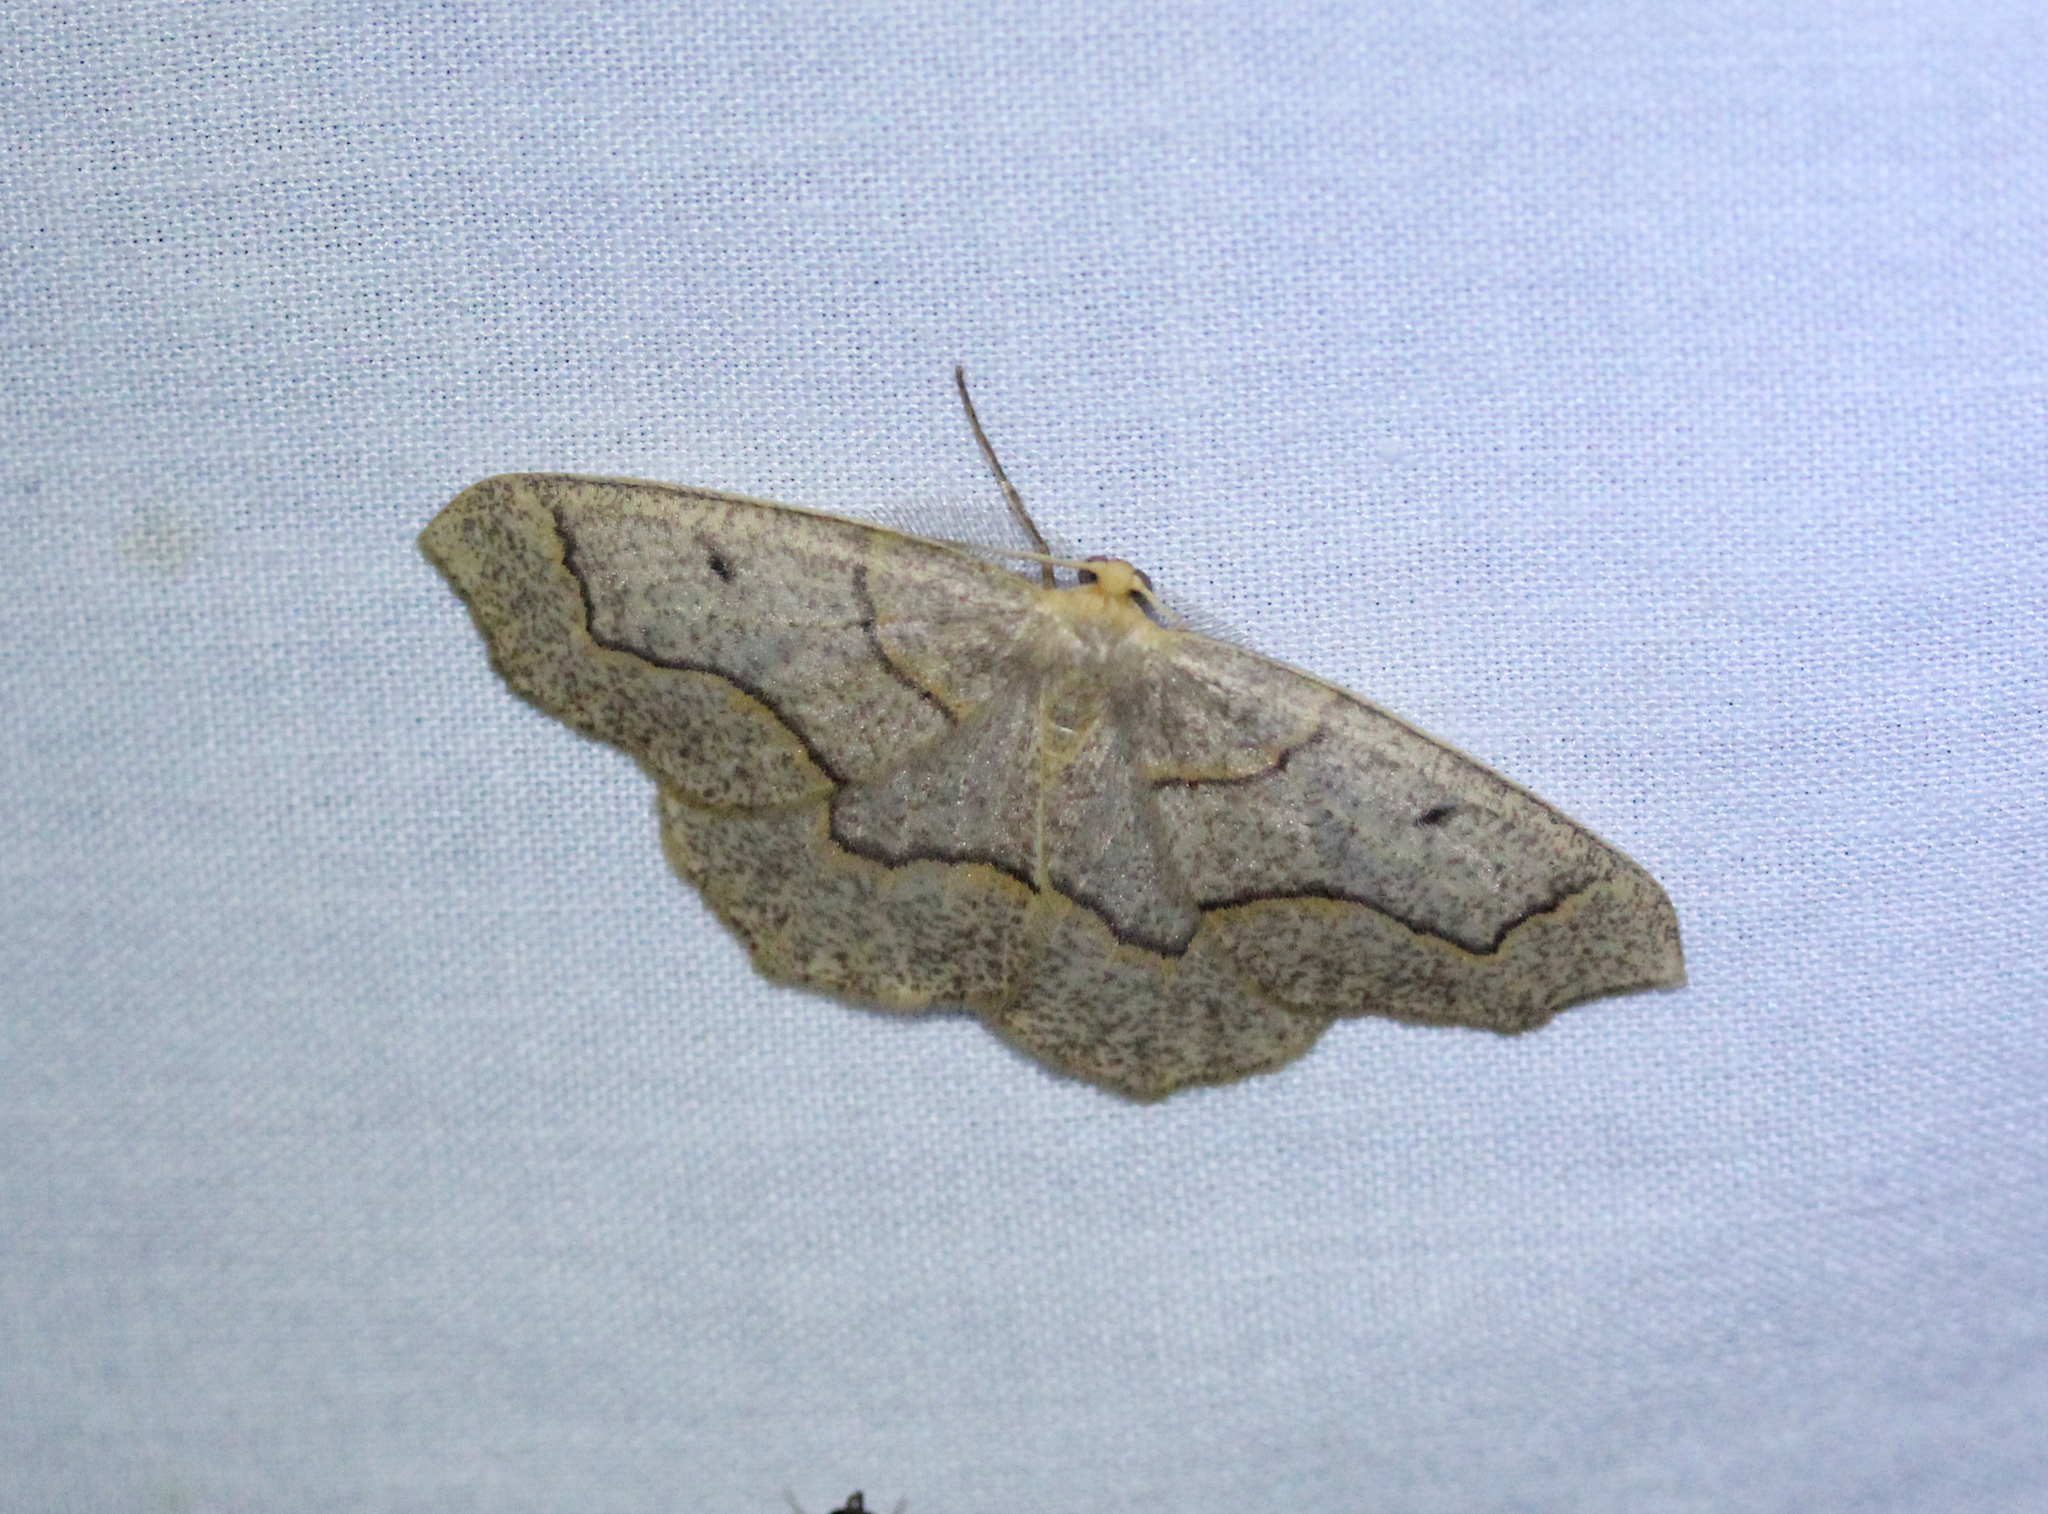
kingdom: Animalia
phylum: Arthropoda
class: Insecta
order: Lepidoptera
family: Geometridae
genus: Lambdina
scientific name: Lambdina fiscellaria
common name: Hemlock looper
